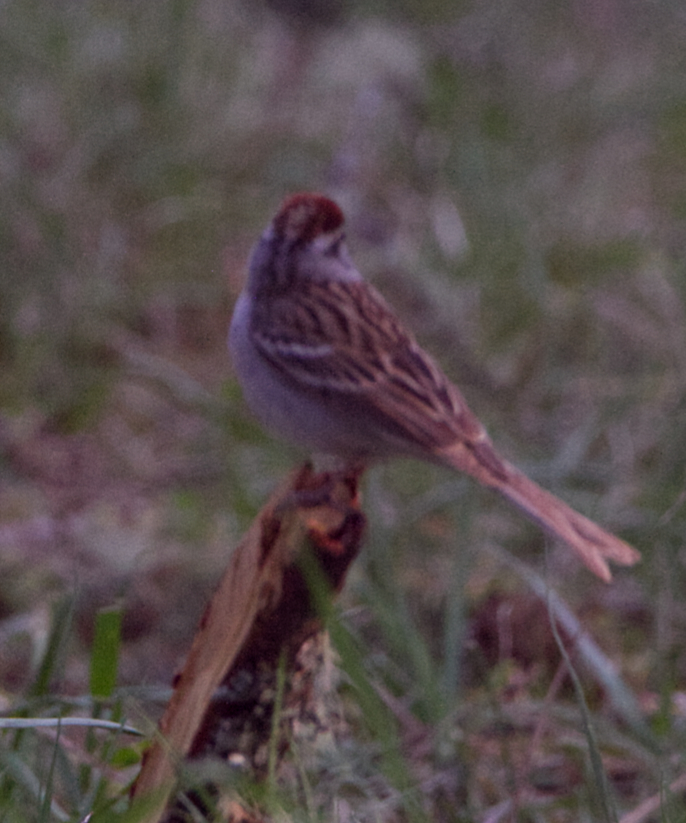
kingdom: Animalia
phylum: Chordata
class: Aves
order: Passeriformes
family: Passerellidae
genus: Spizella
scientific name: Spizella passerina
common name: Chipping sparrow
